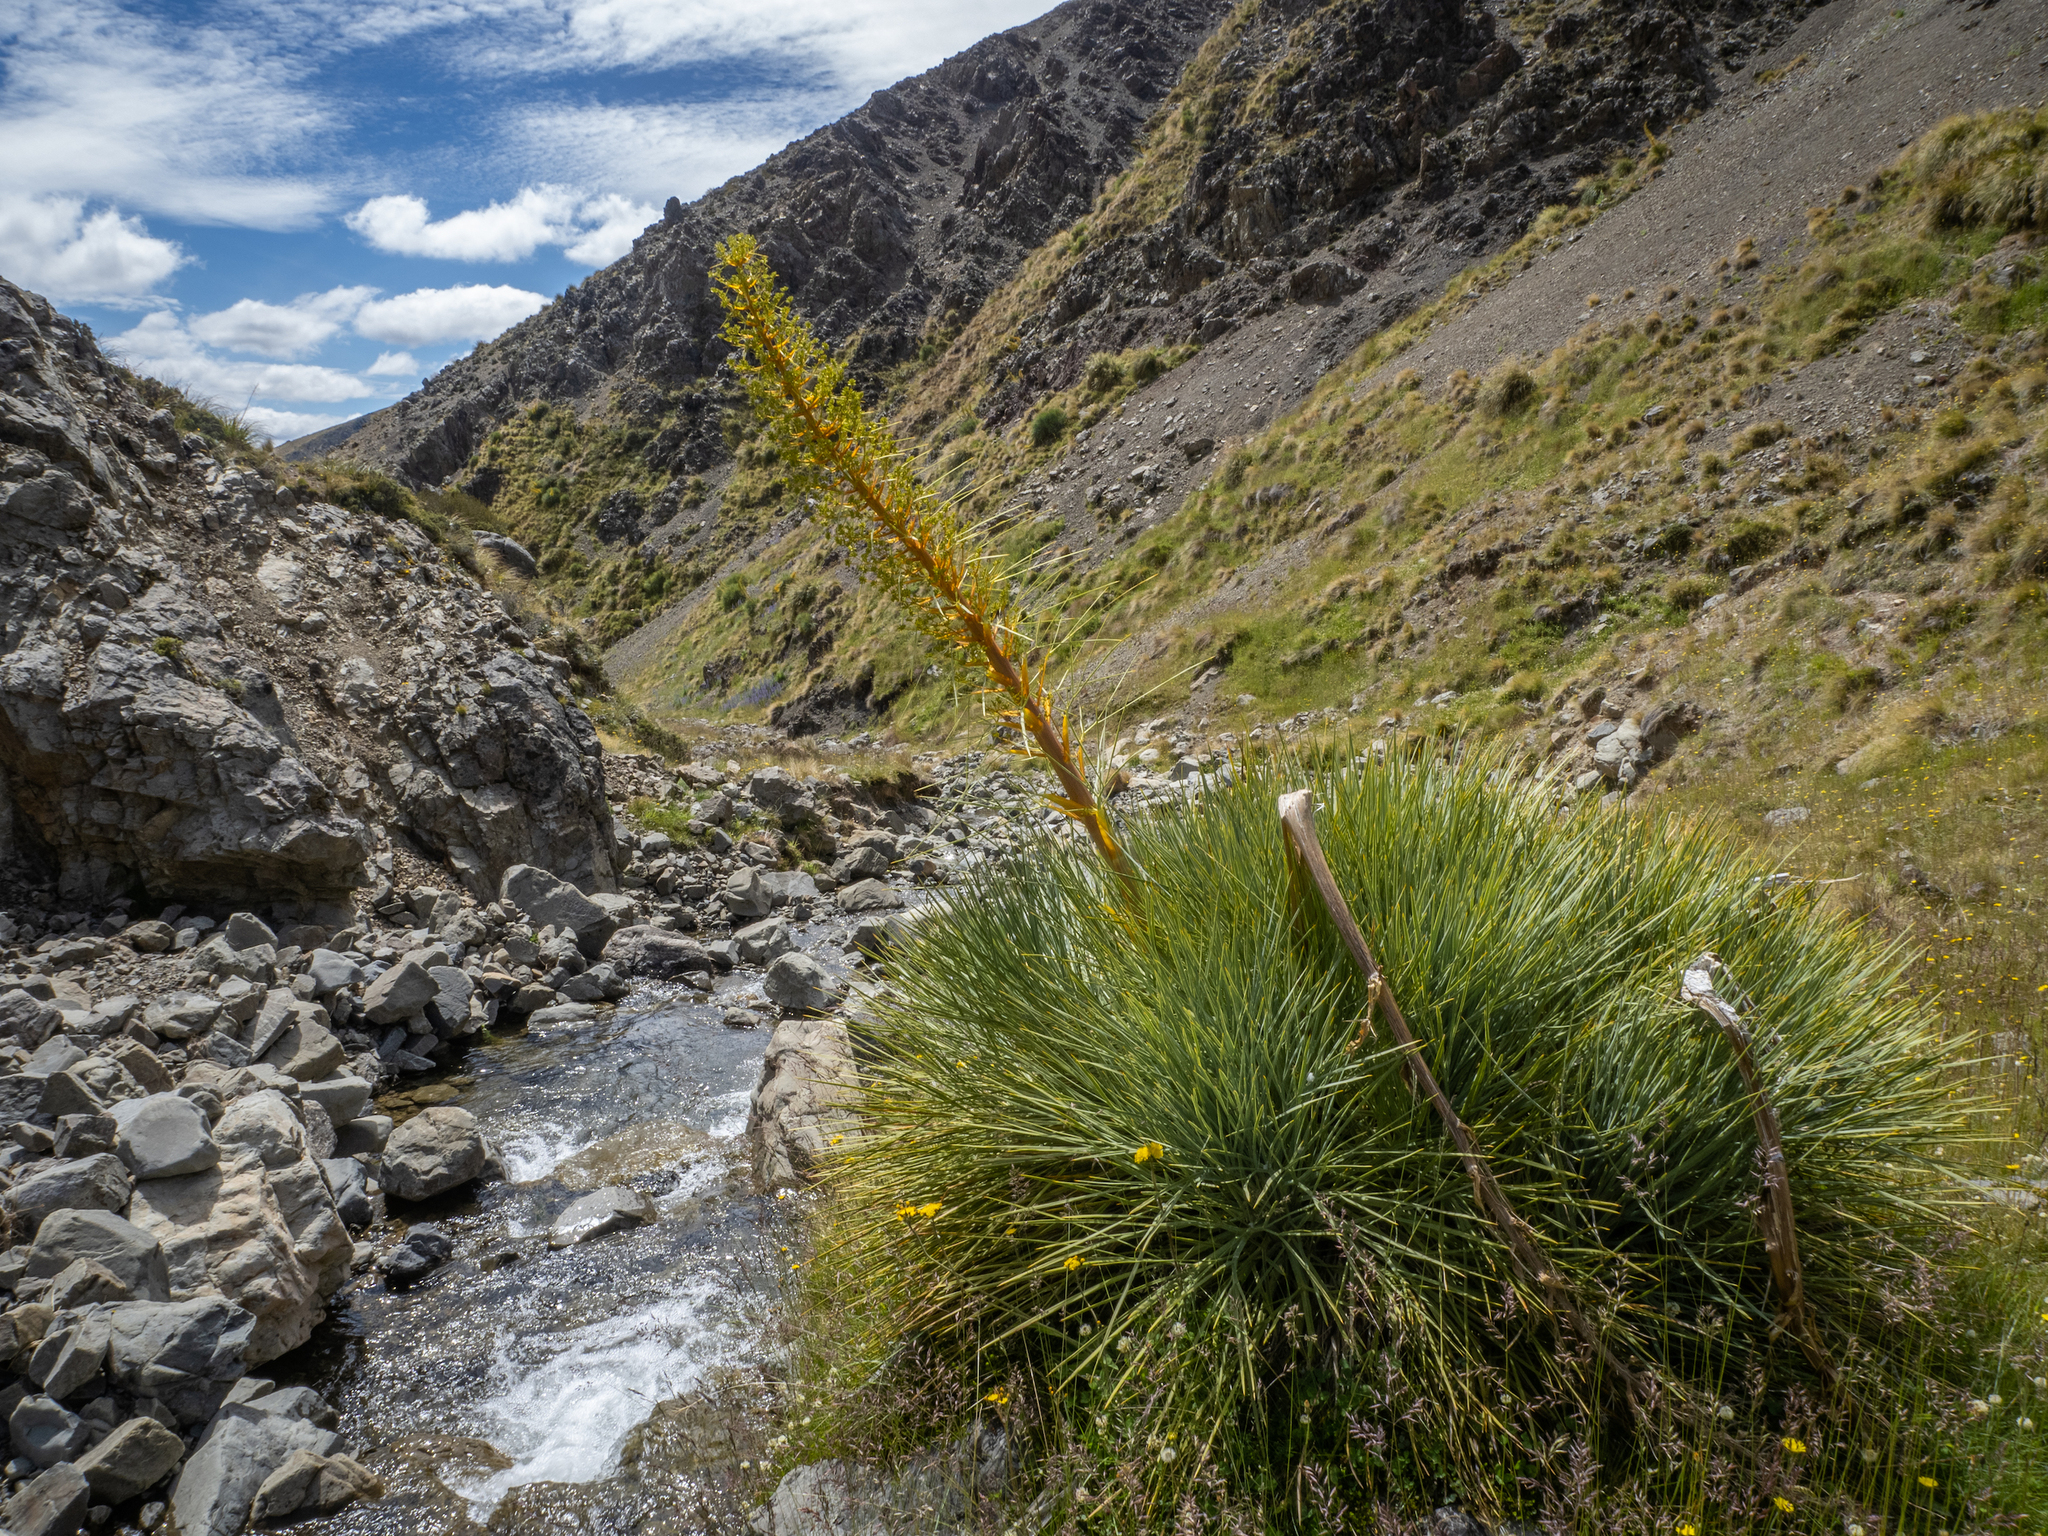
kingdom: Plantae
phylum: Tracheophyta
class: Magnoliopsida
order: Apiales
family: Apiaceae
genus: Aciphylla
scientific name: Aciphylla glaucescens
